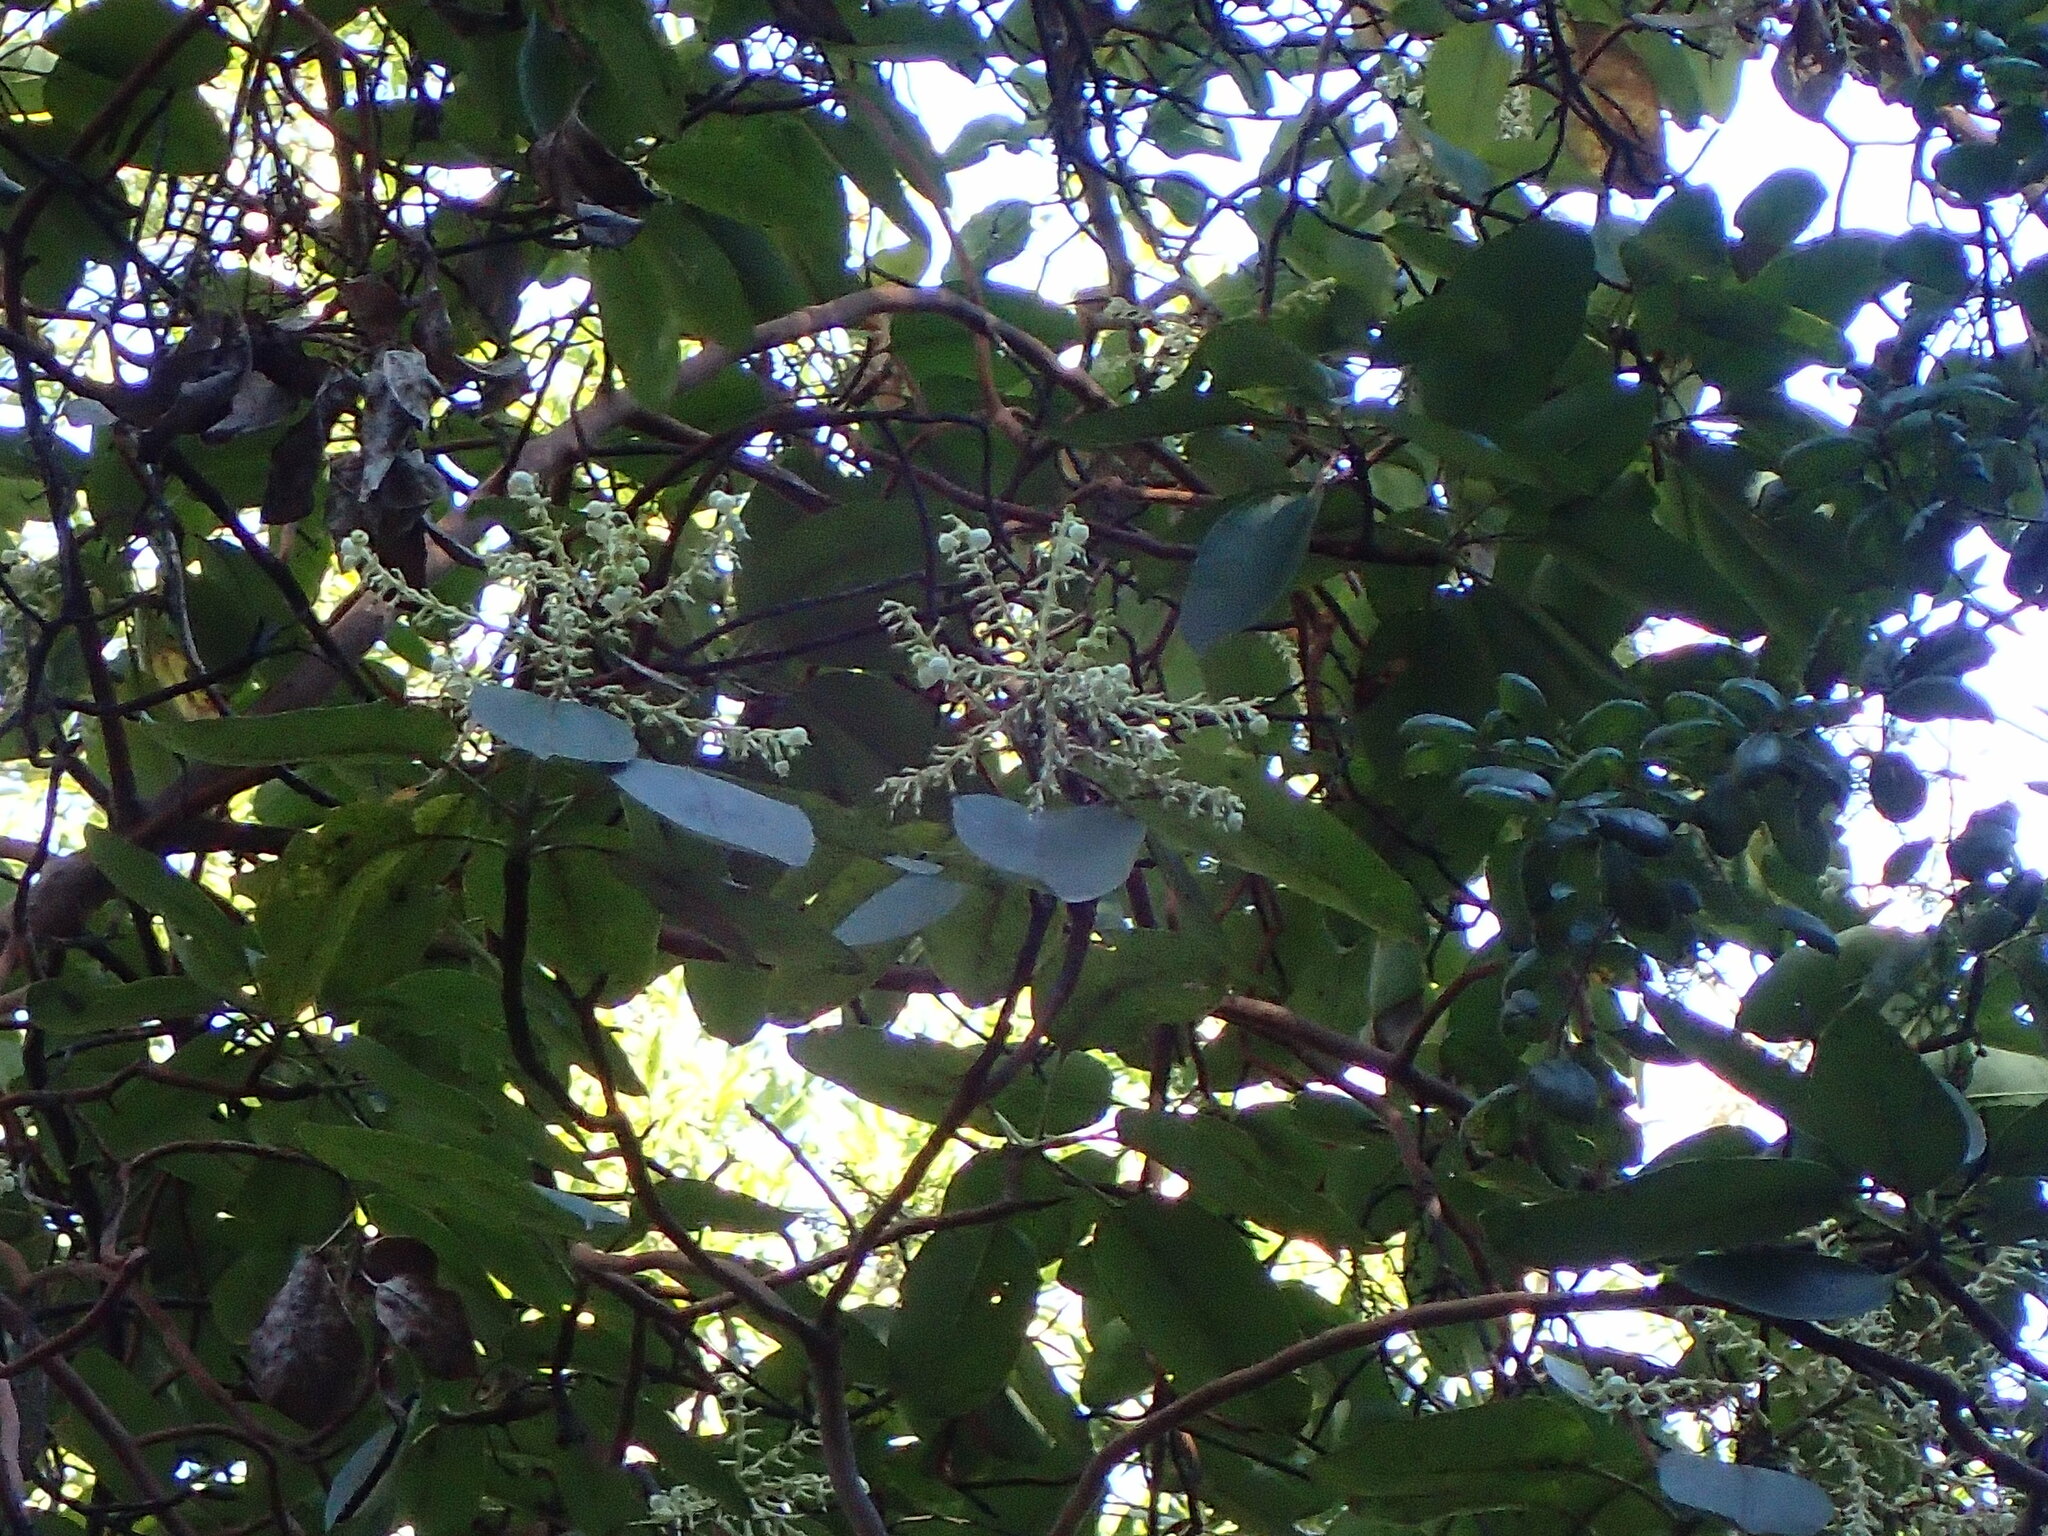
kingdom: Plantae
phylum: Tracheophyta
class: Magnoliopsida
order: Ericales
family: Ericaceae
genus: Arbutus
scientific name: Arbutus menziesii
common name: Pacific madrone
